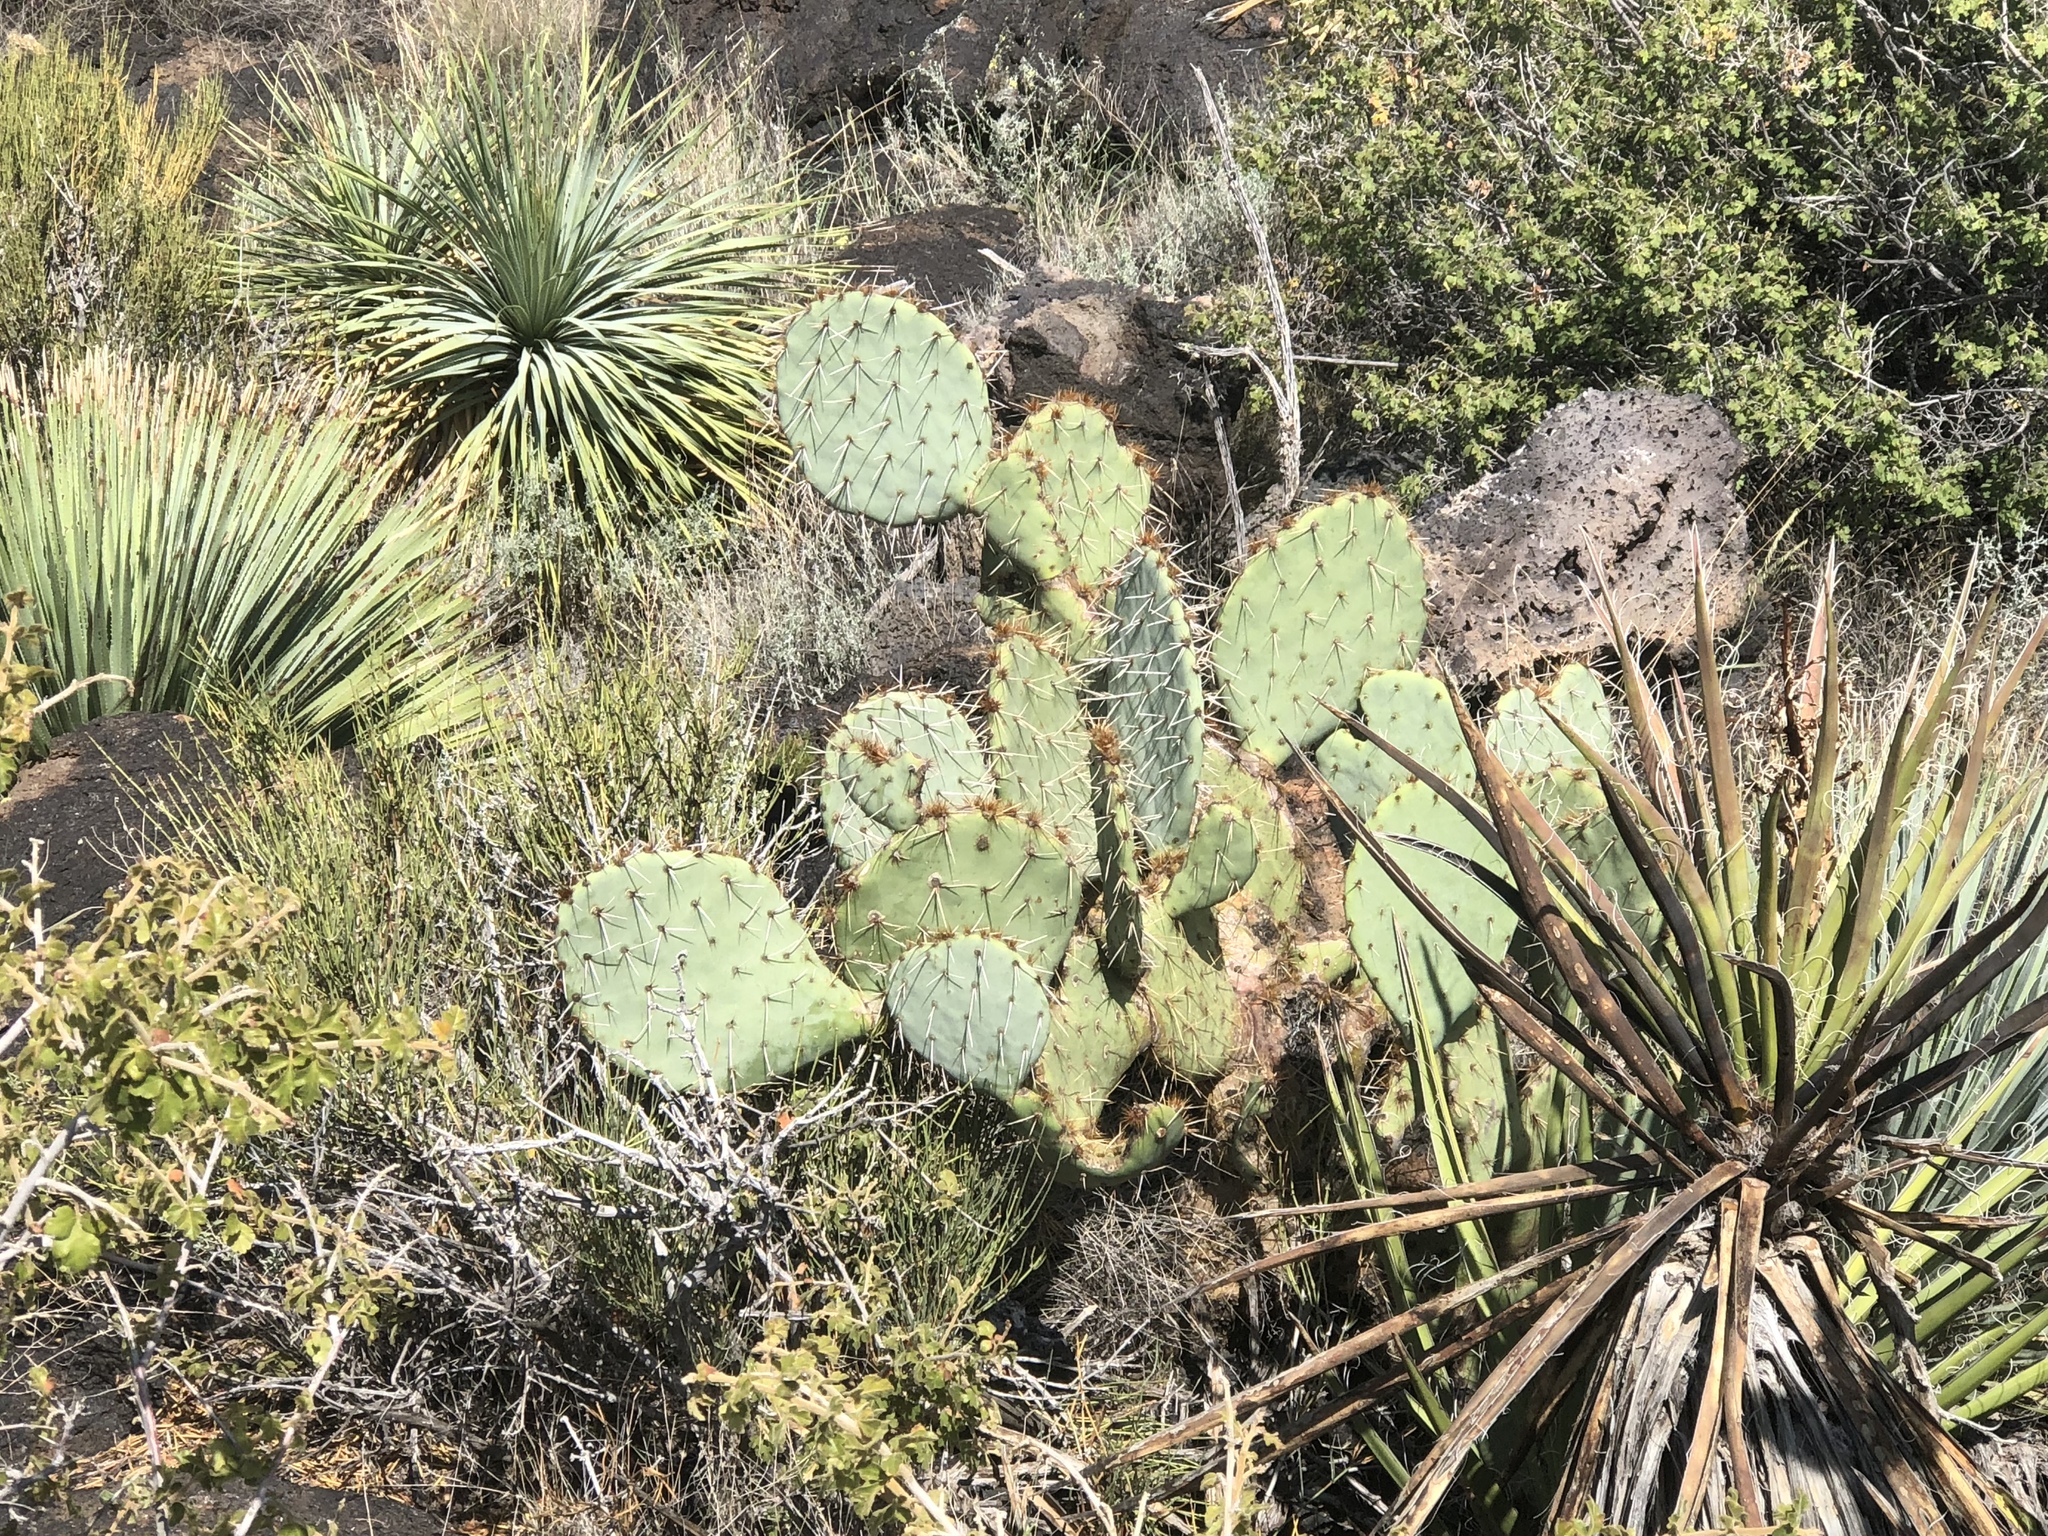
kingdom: Plantae
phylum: Tracheophyta
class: Magnoliopsida
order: Caryophyllales
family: Cactaceae
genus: Opuntia
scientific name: Opuntia engelmannii
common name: Cactus-apple
